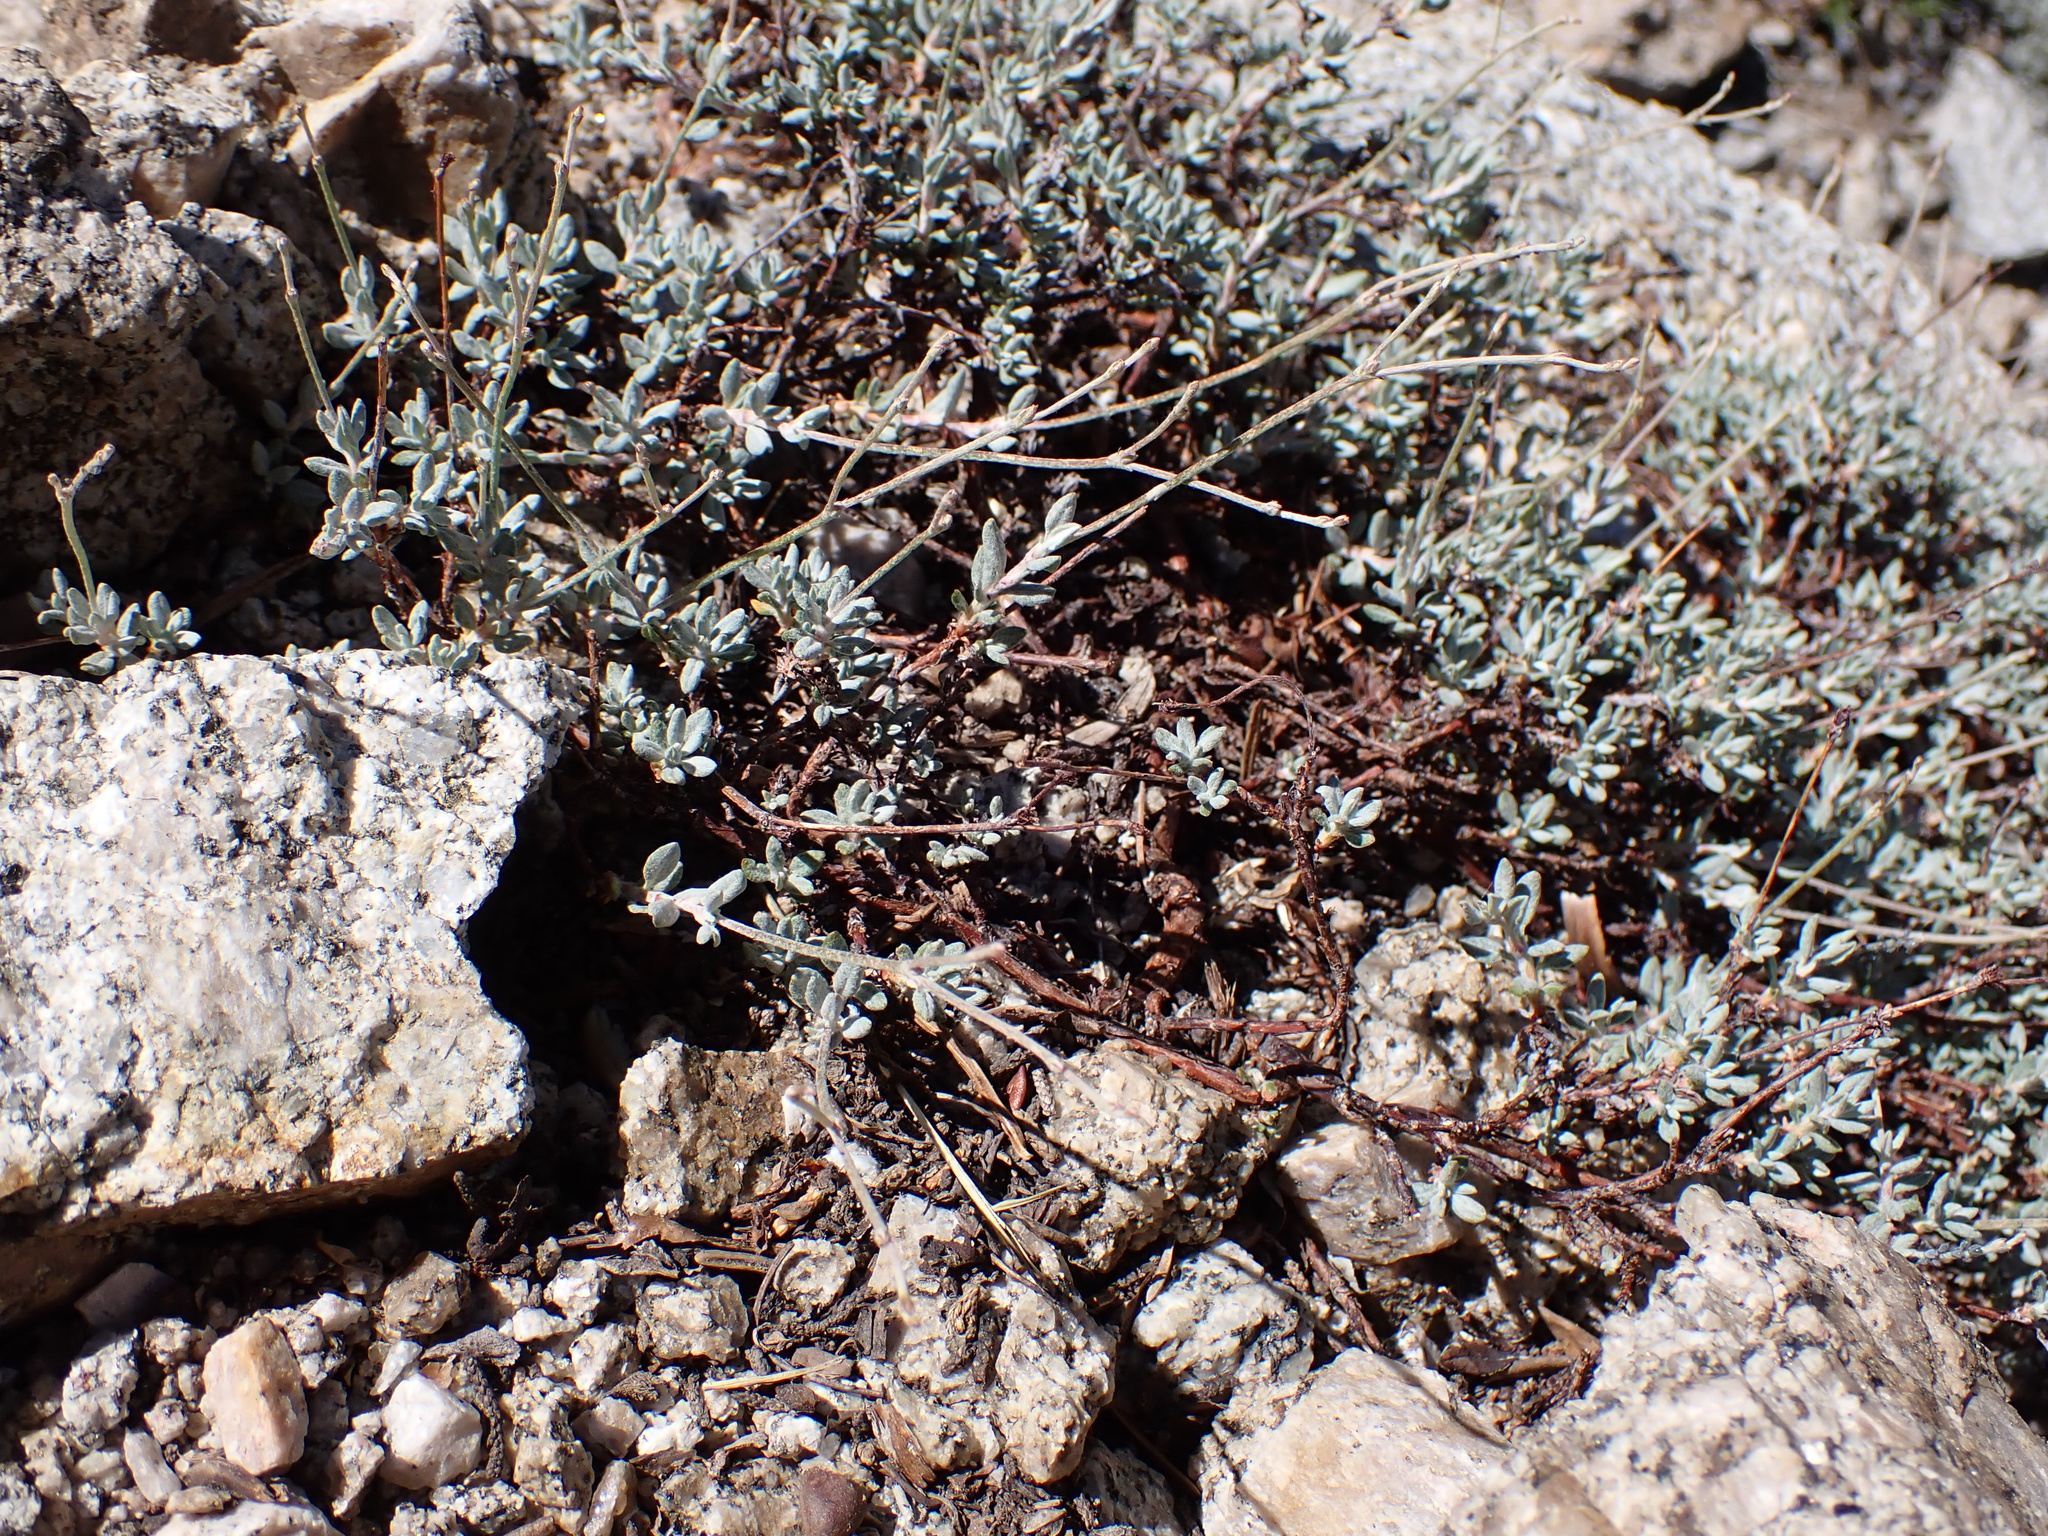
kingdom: Plantae
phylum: Tracheophyta
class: Magnoliopsida
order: Caryophyllales
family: Polygonaceae
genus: Eriogonum
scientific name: Eriogonum wrightii
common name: Bastard-sage
